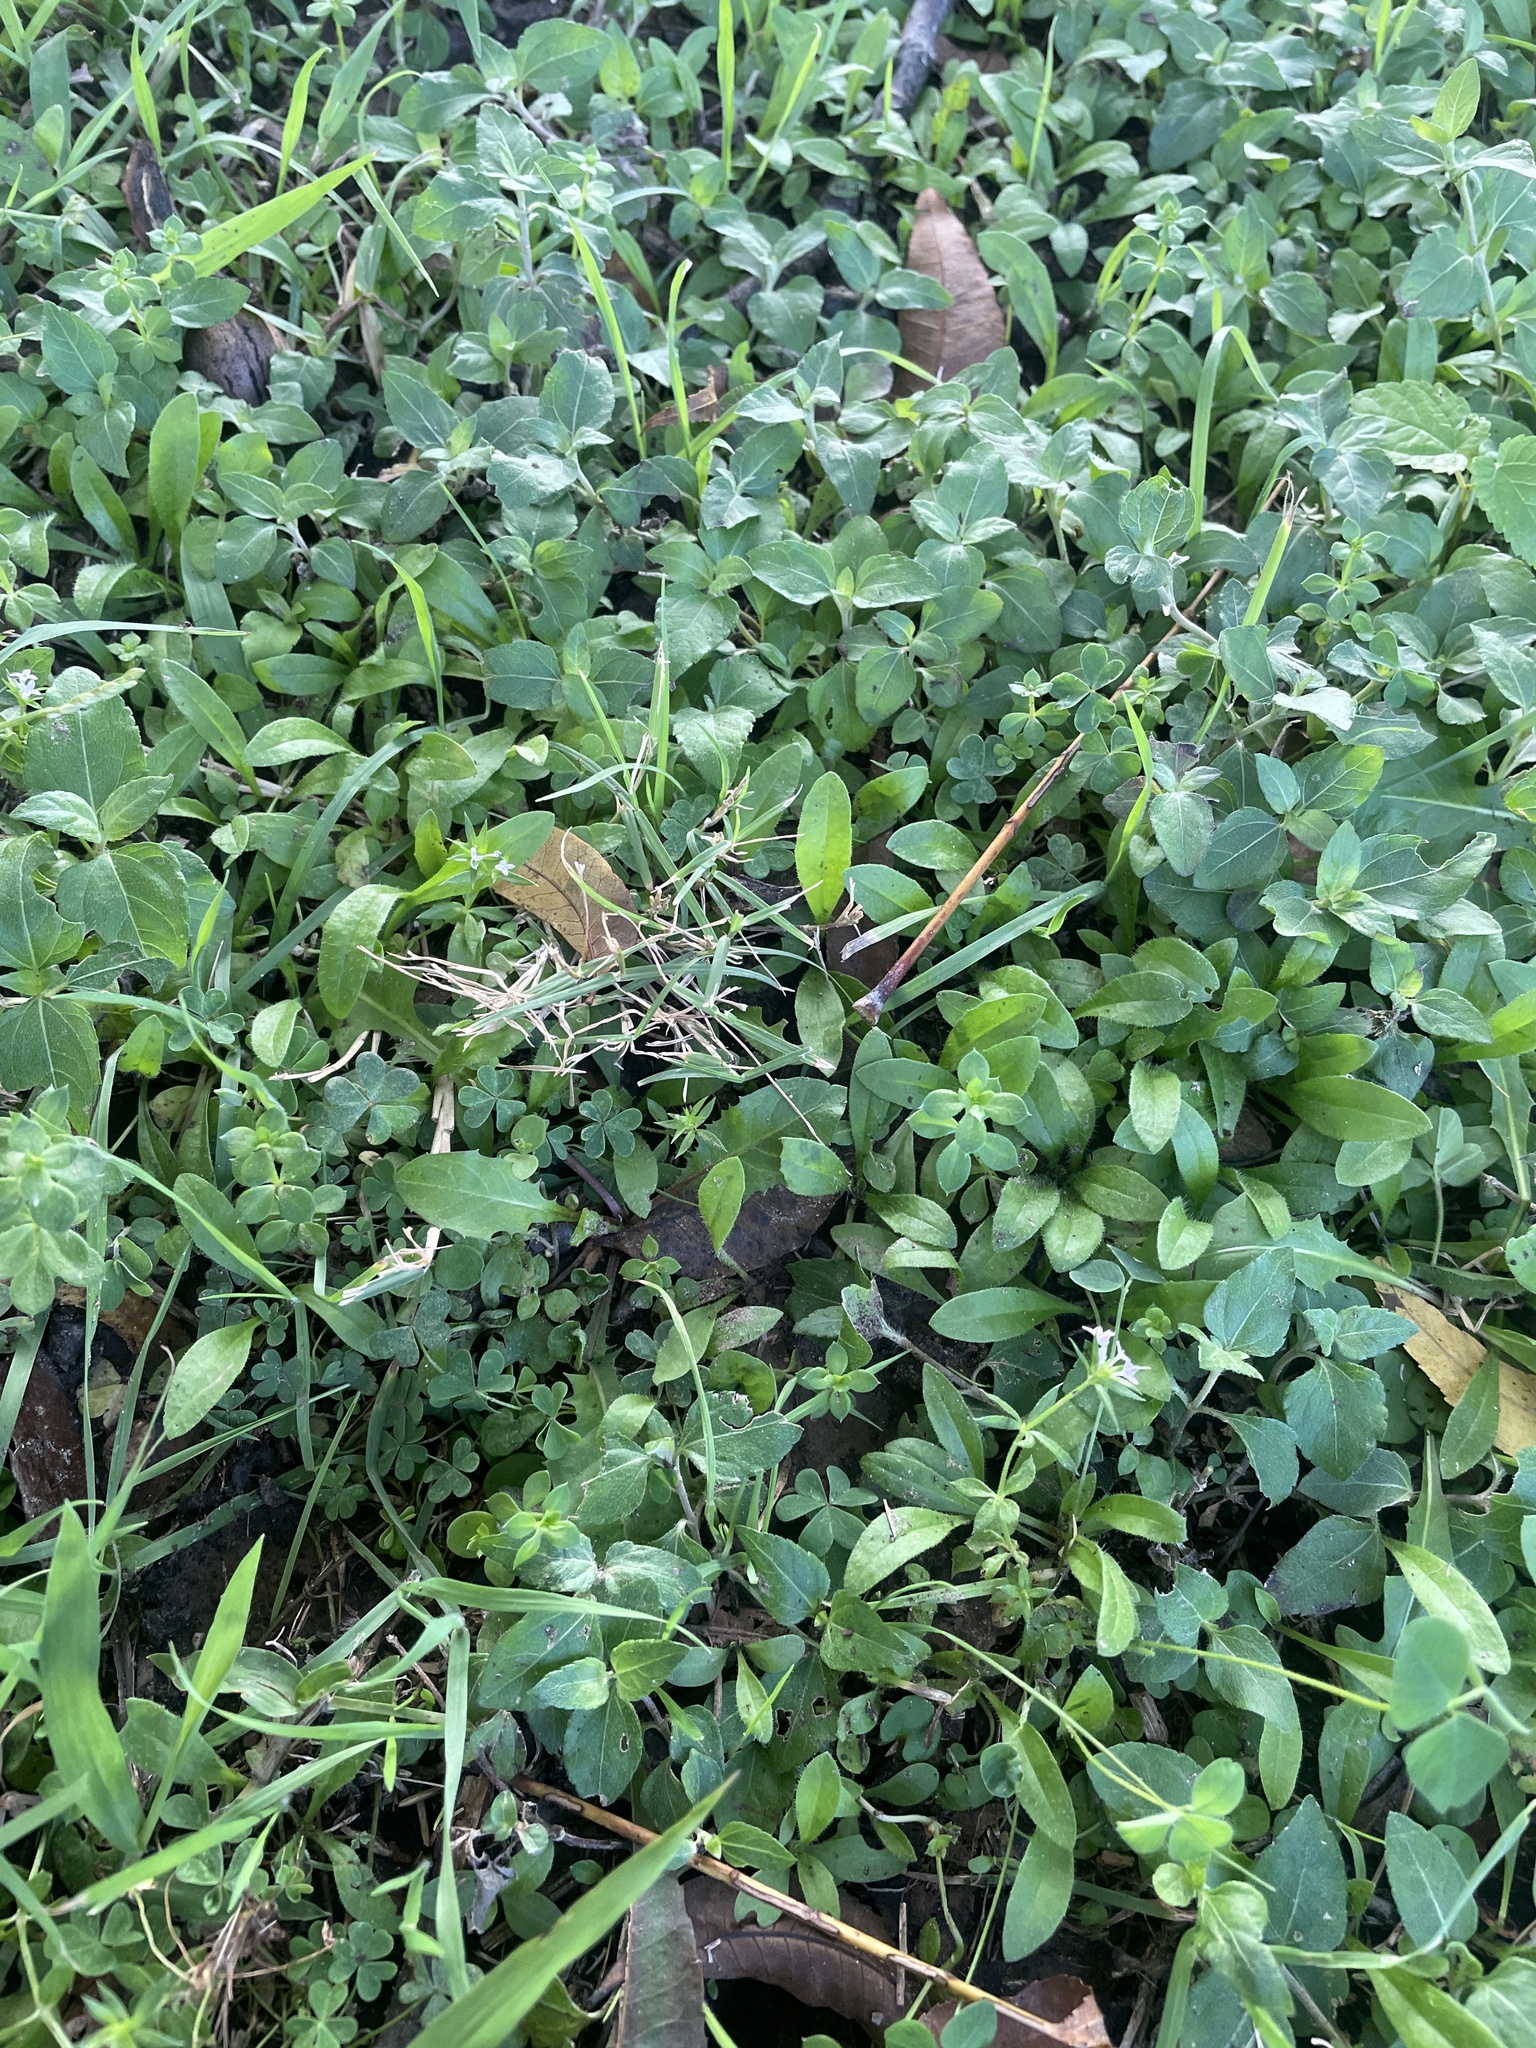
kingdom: Plantae
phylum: Tracheophyta
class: Magnoliopsida
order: Gentianales
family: Rubiaceae
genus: Sherardia
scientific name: Sherardia arvensis
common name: Field madder
